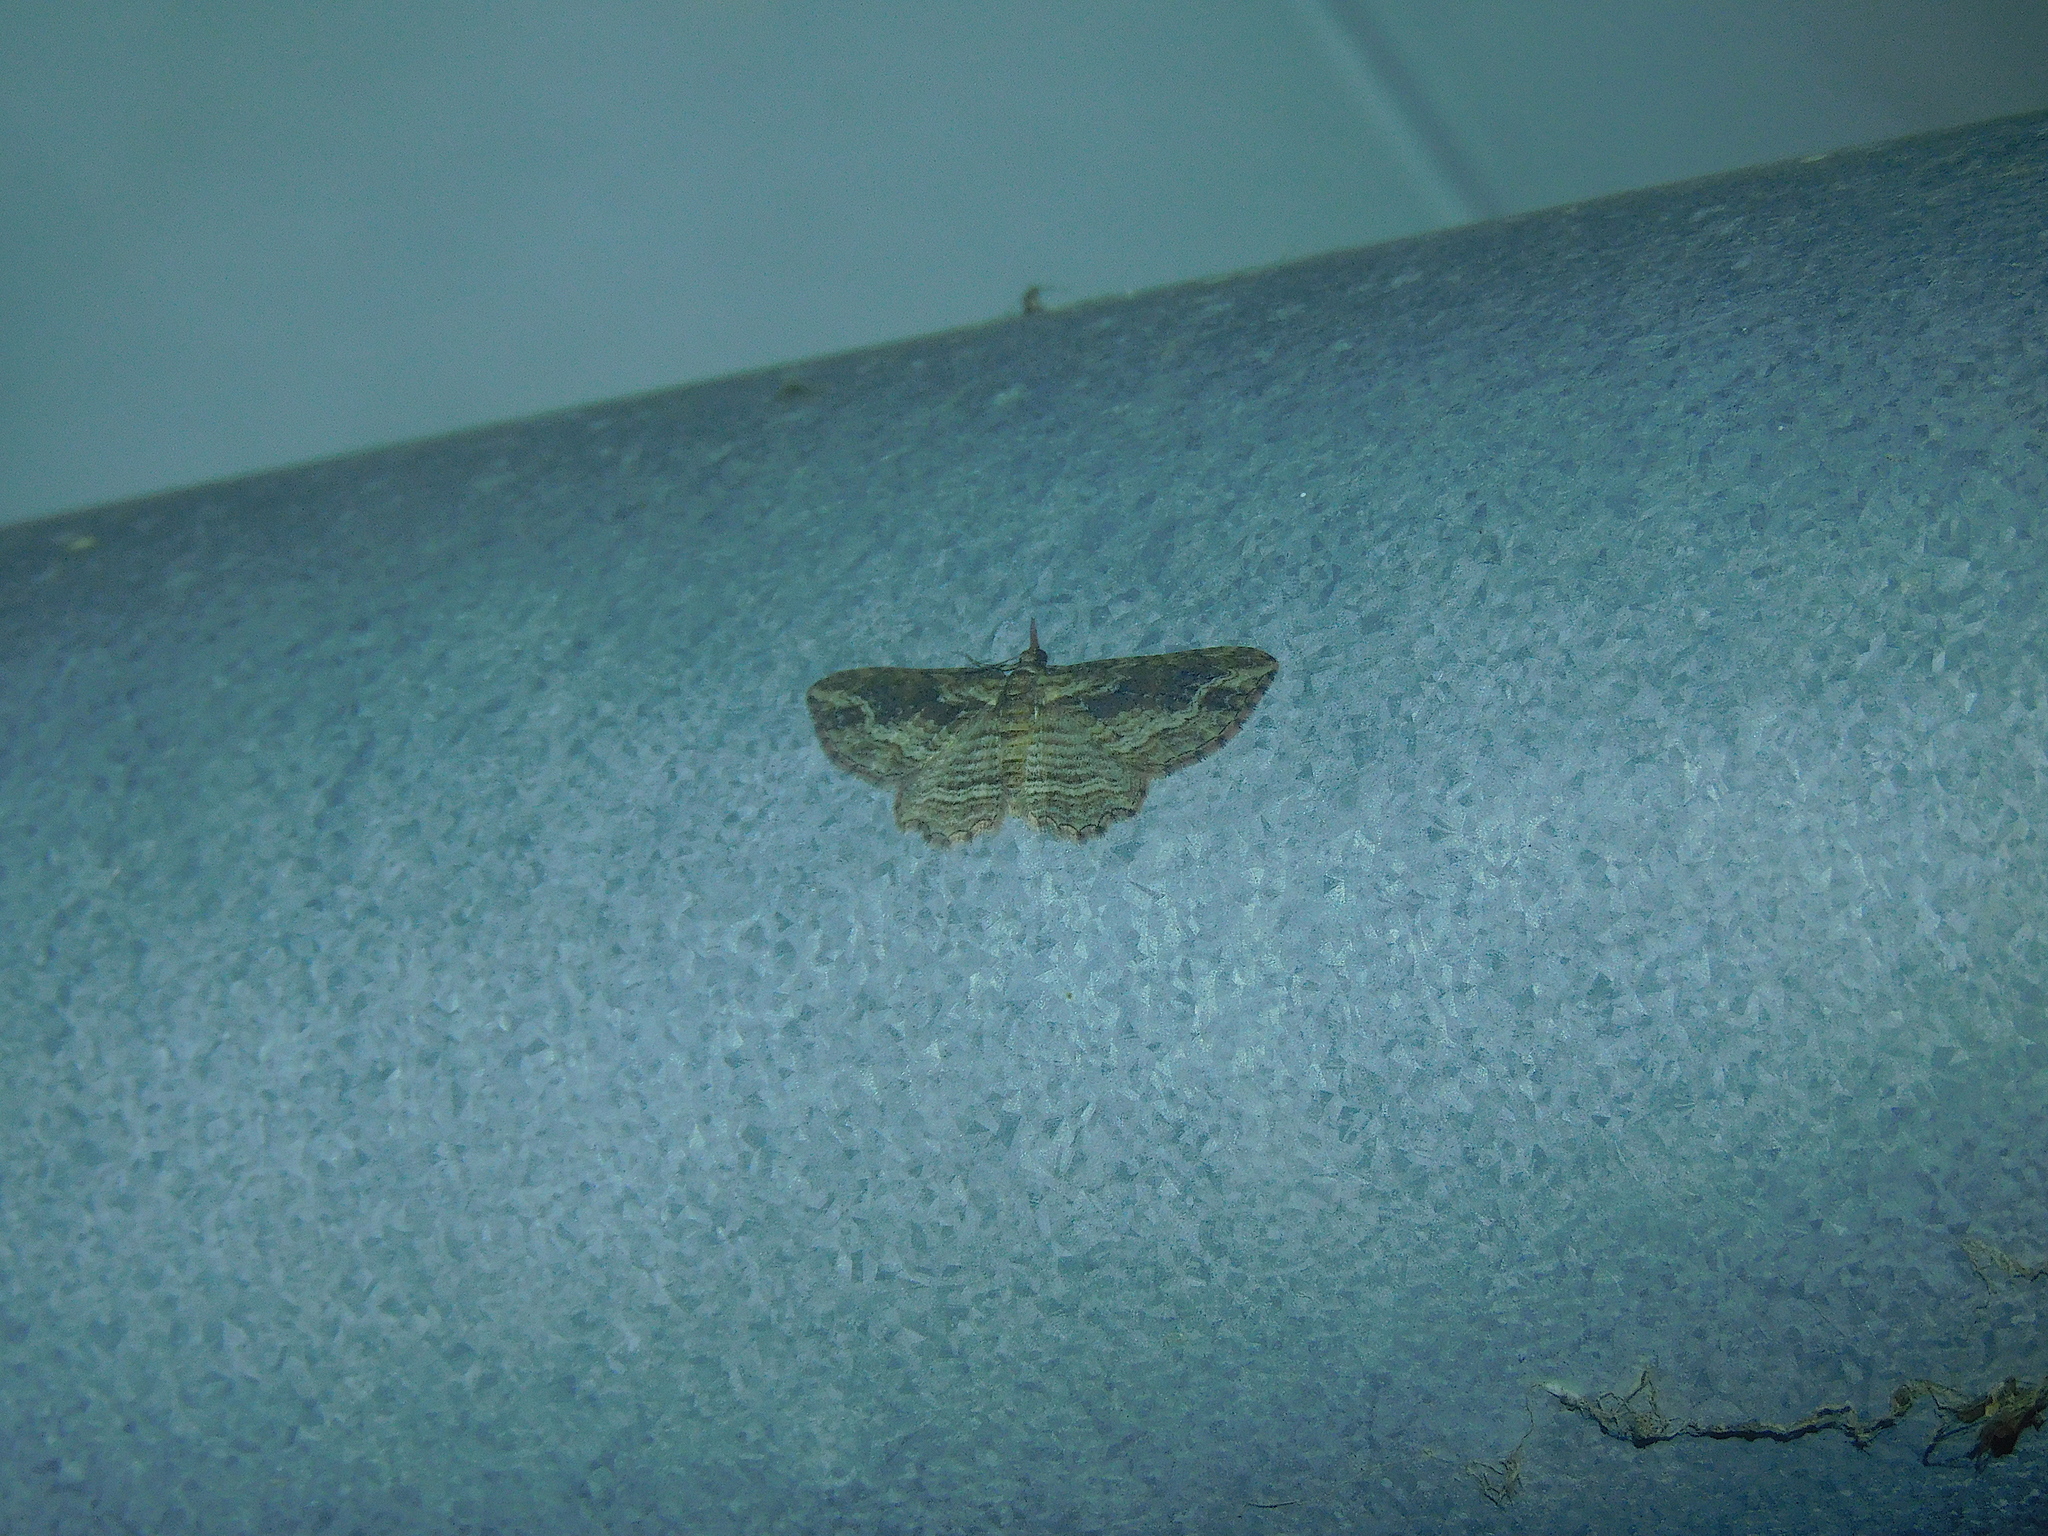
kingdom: Animalia
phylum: Arthropoda
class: Insecta
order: Lepidoptera
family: Geometridae
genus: Chloroclystis
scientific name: Chloroclystis filata
